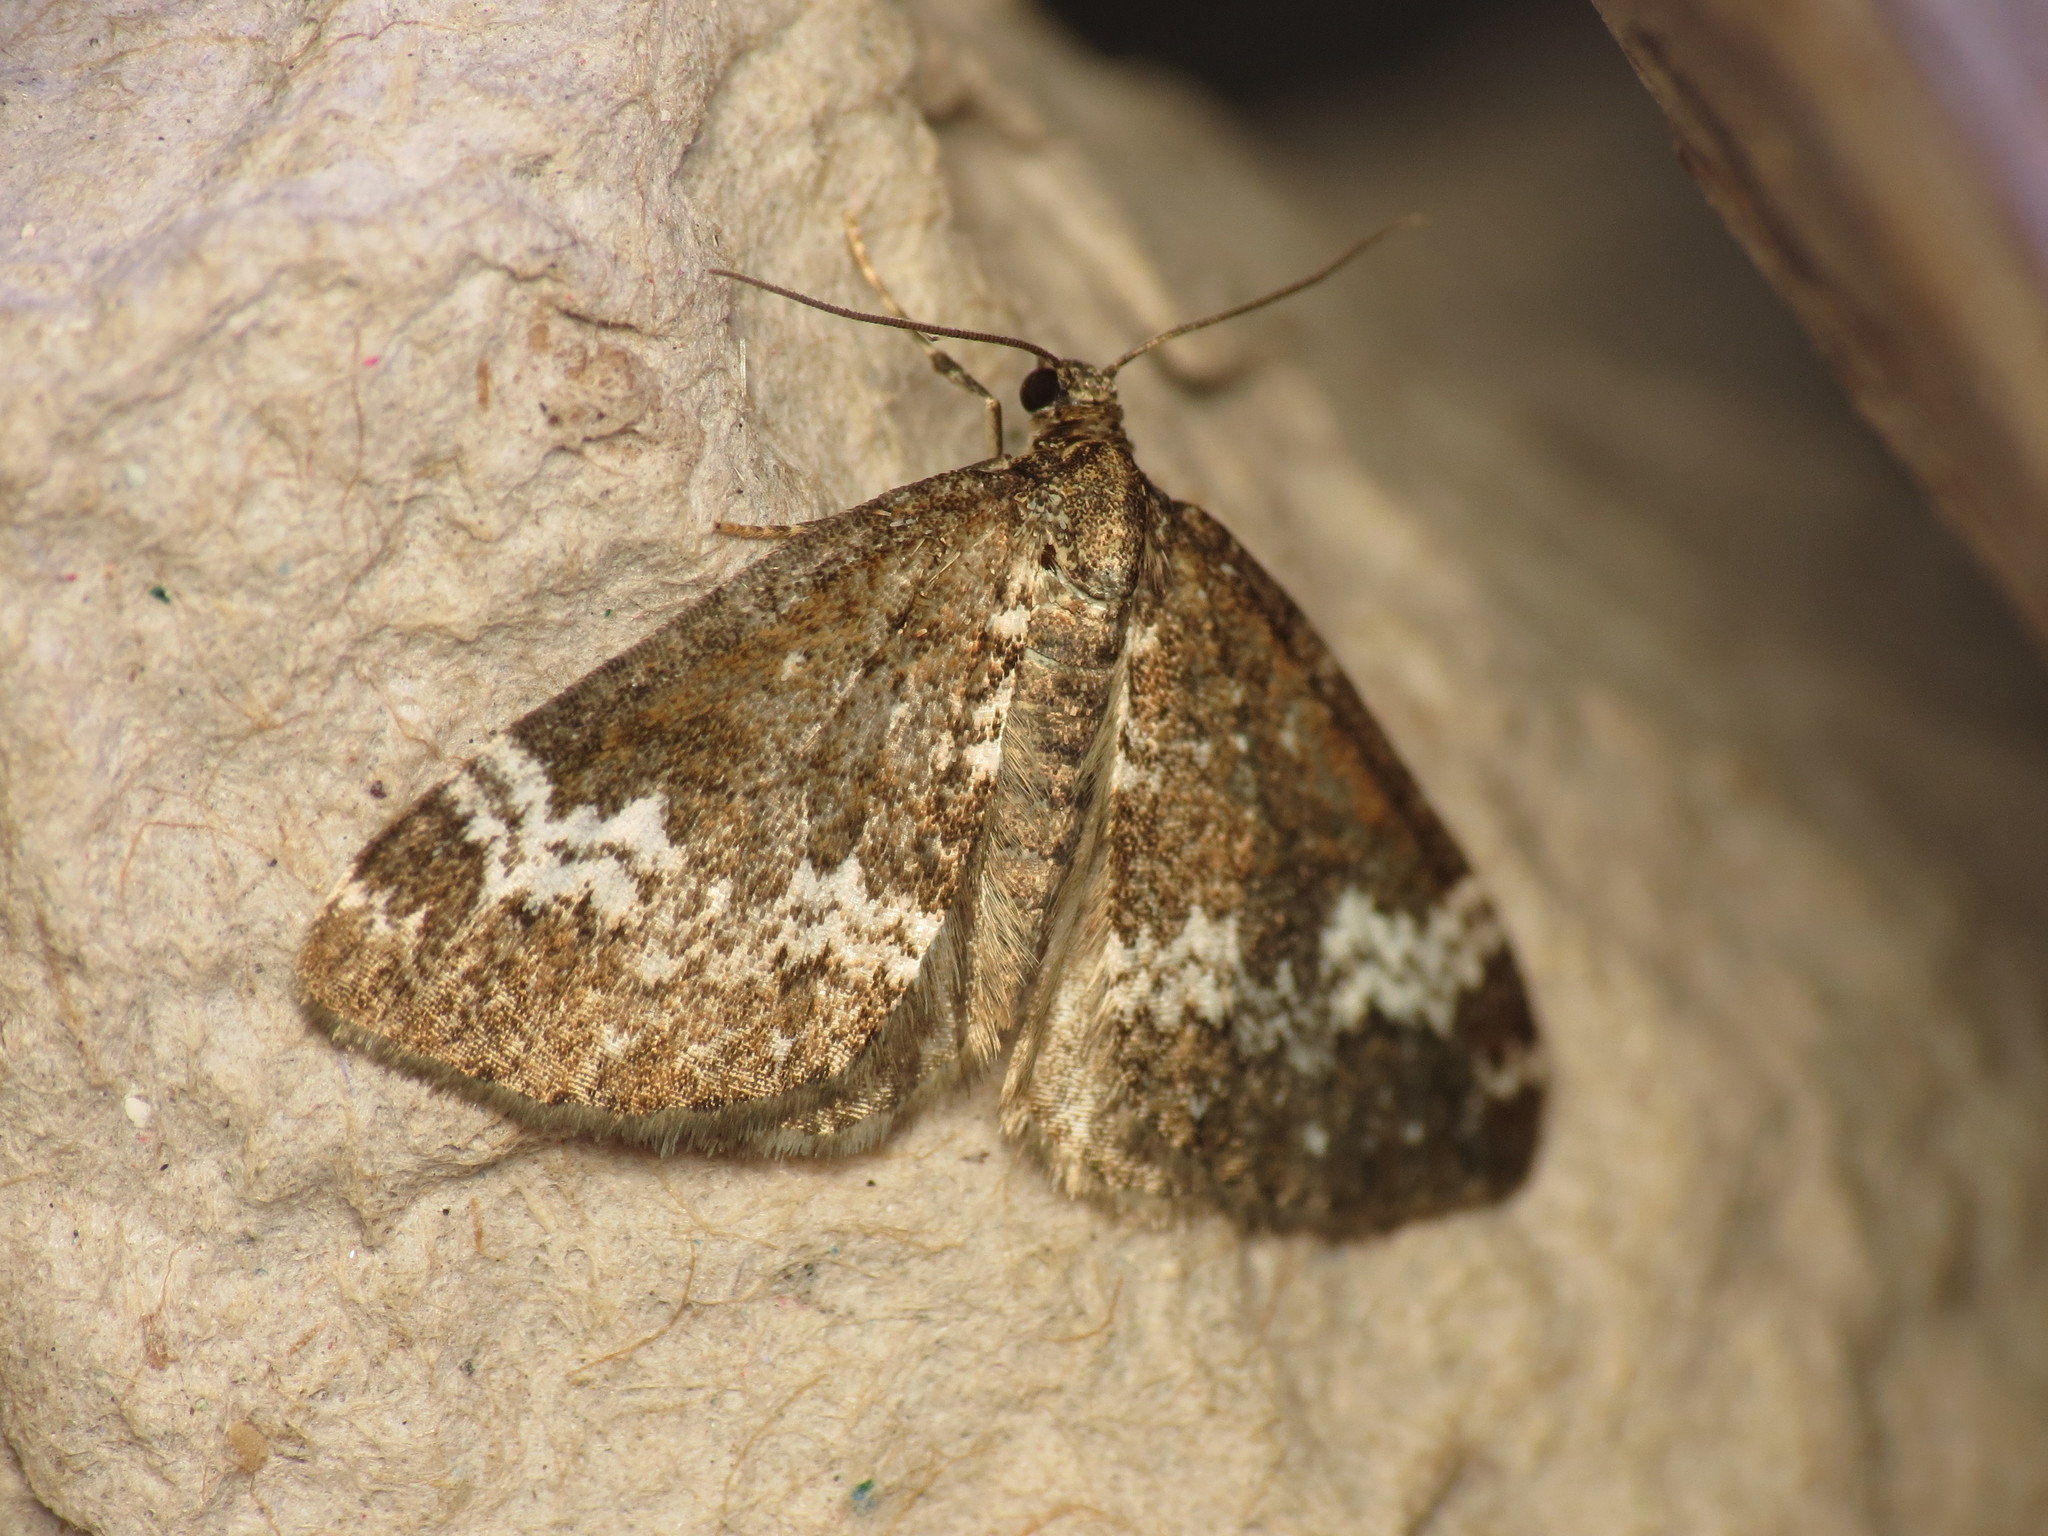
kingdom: Animalia
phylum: Arthropoda
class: Insecta
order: Lepidoptera
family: Geometridae
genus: Perizoma
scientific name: Perizoma alchemillata
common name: Small rivulet
